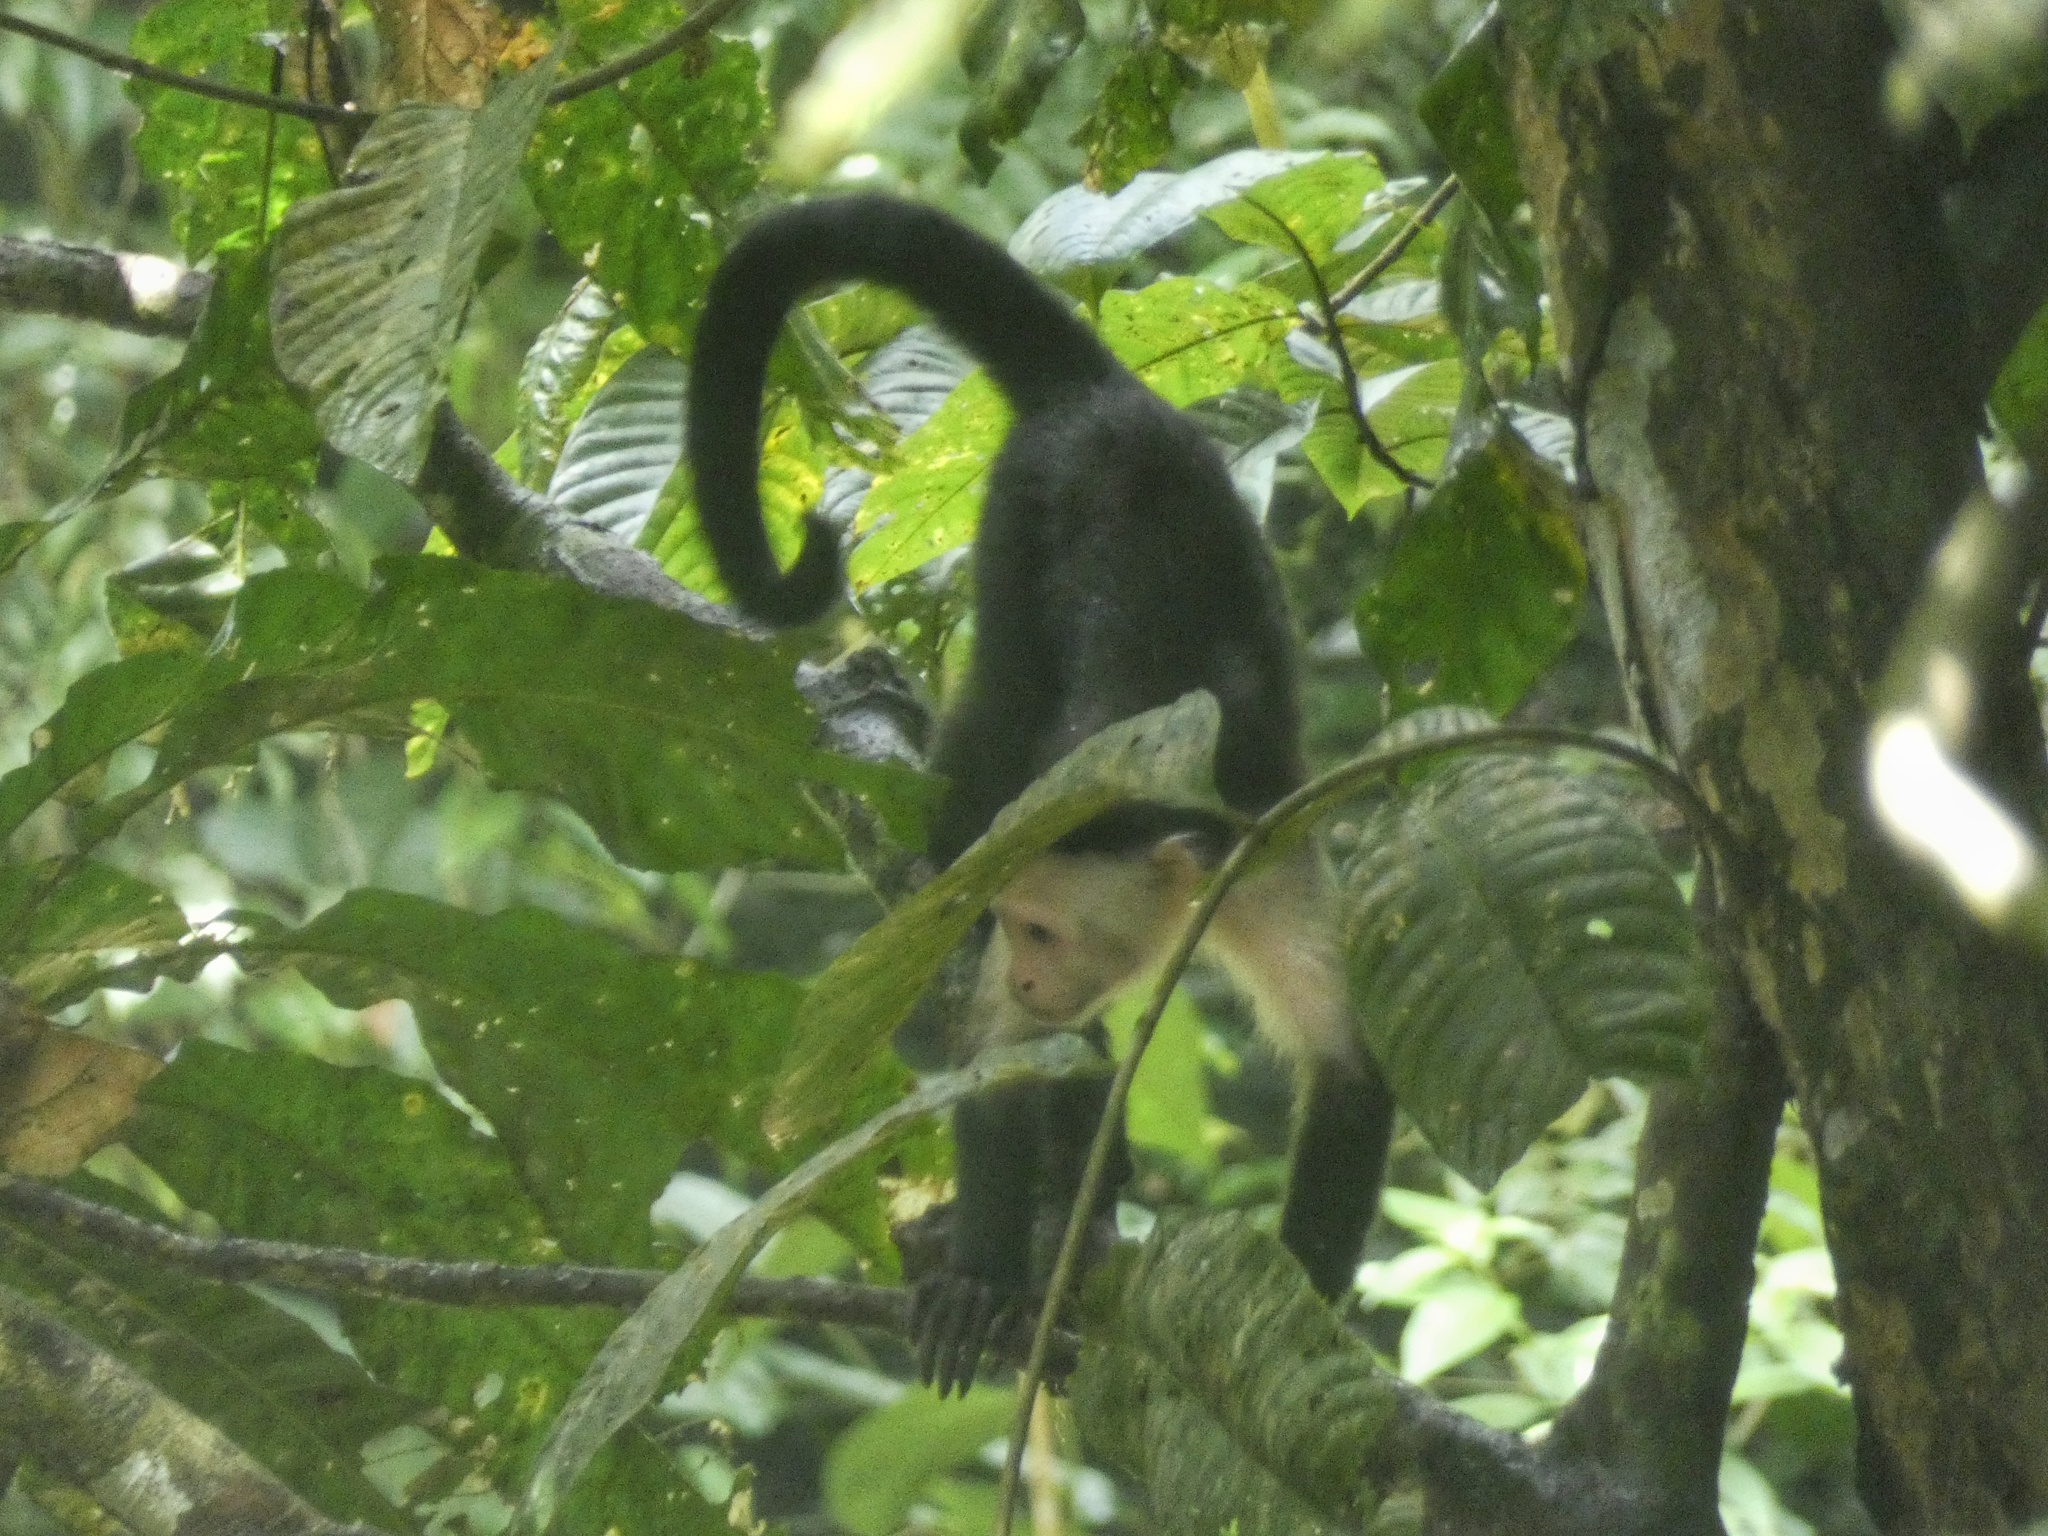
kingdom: Animalia
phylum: Chordata
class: Mammalia
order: Primates
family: Cebidae
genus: Cebus
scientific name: Cebus imitator
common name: Panamanian white-faced capuchin
